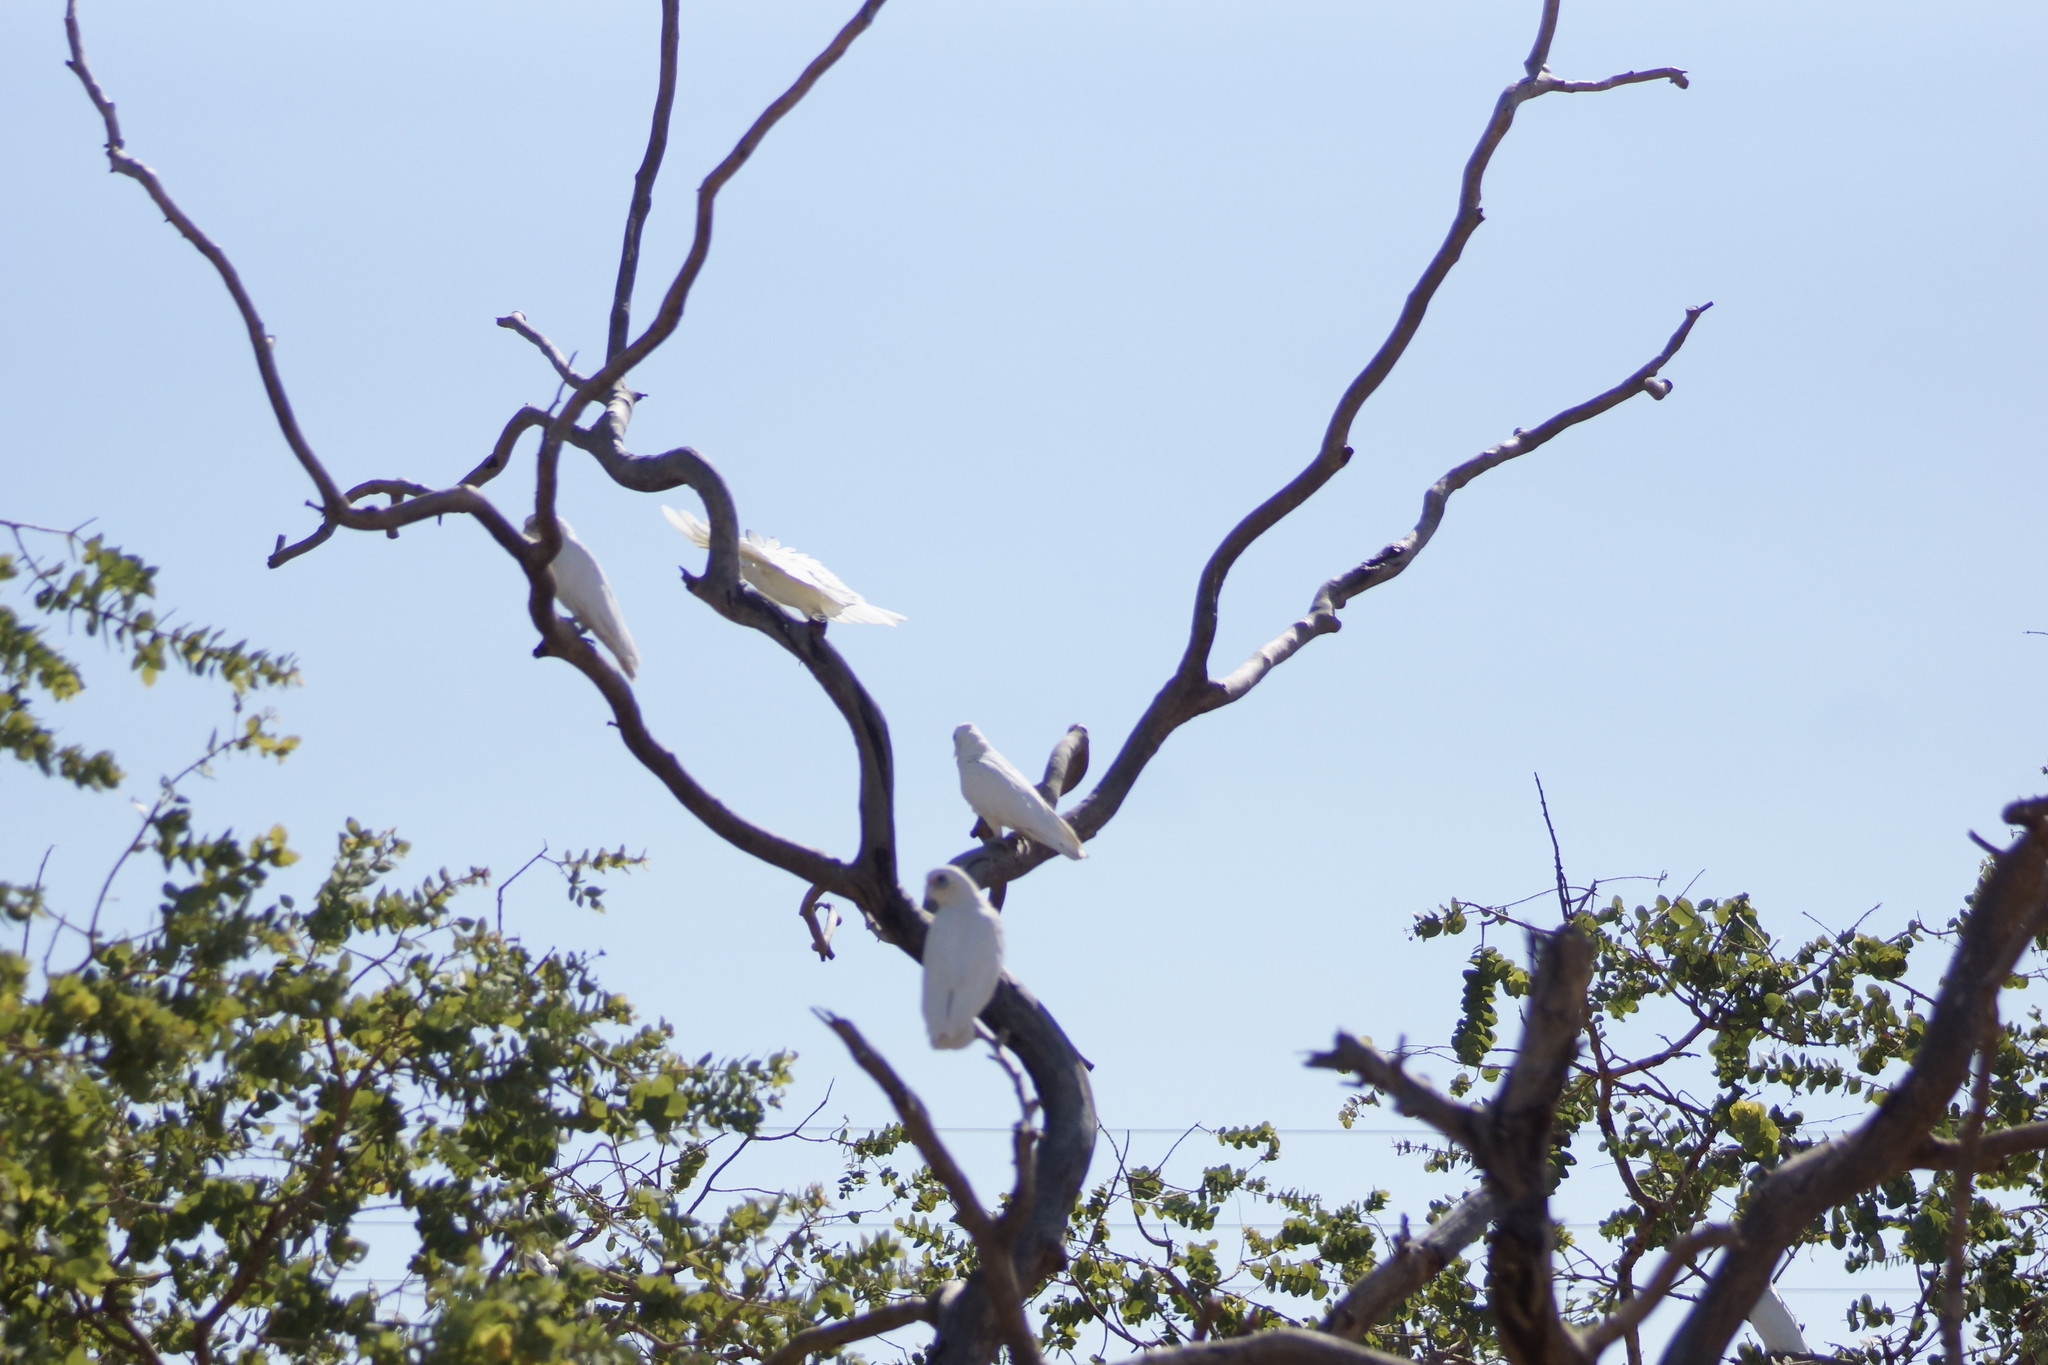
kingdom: Animalia
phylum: Chordata
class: Aves
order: Psittaciformes
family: Psittacidae
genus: Cacatua
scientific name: Cacatua sanguinea
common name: Little corella
